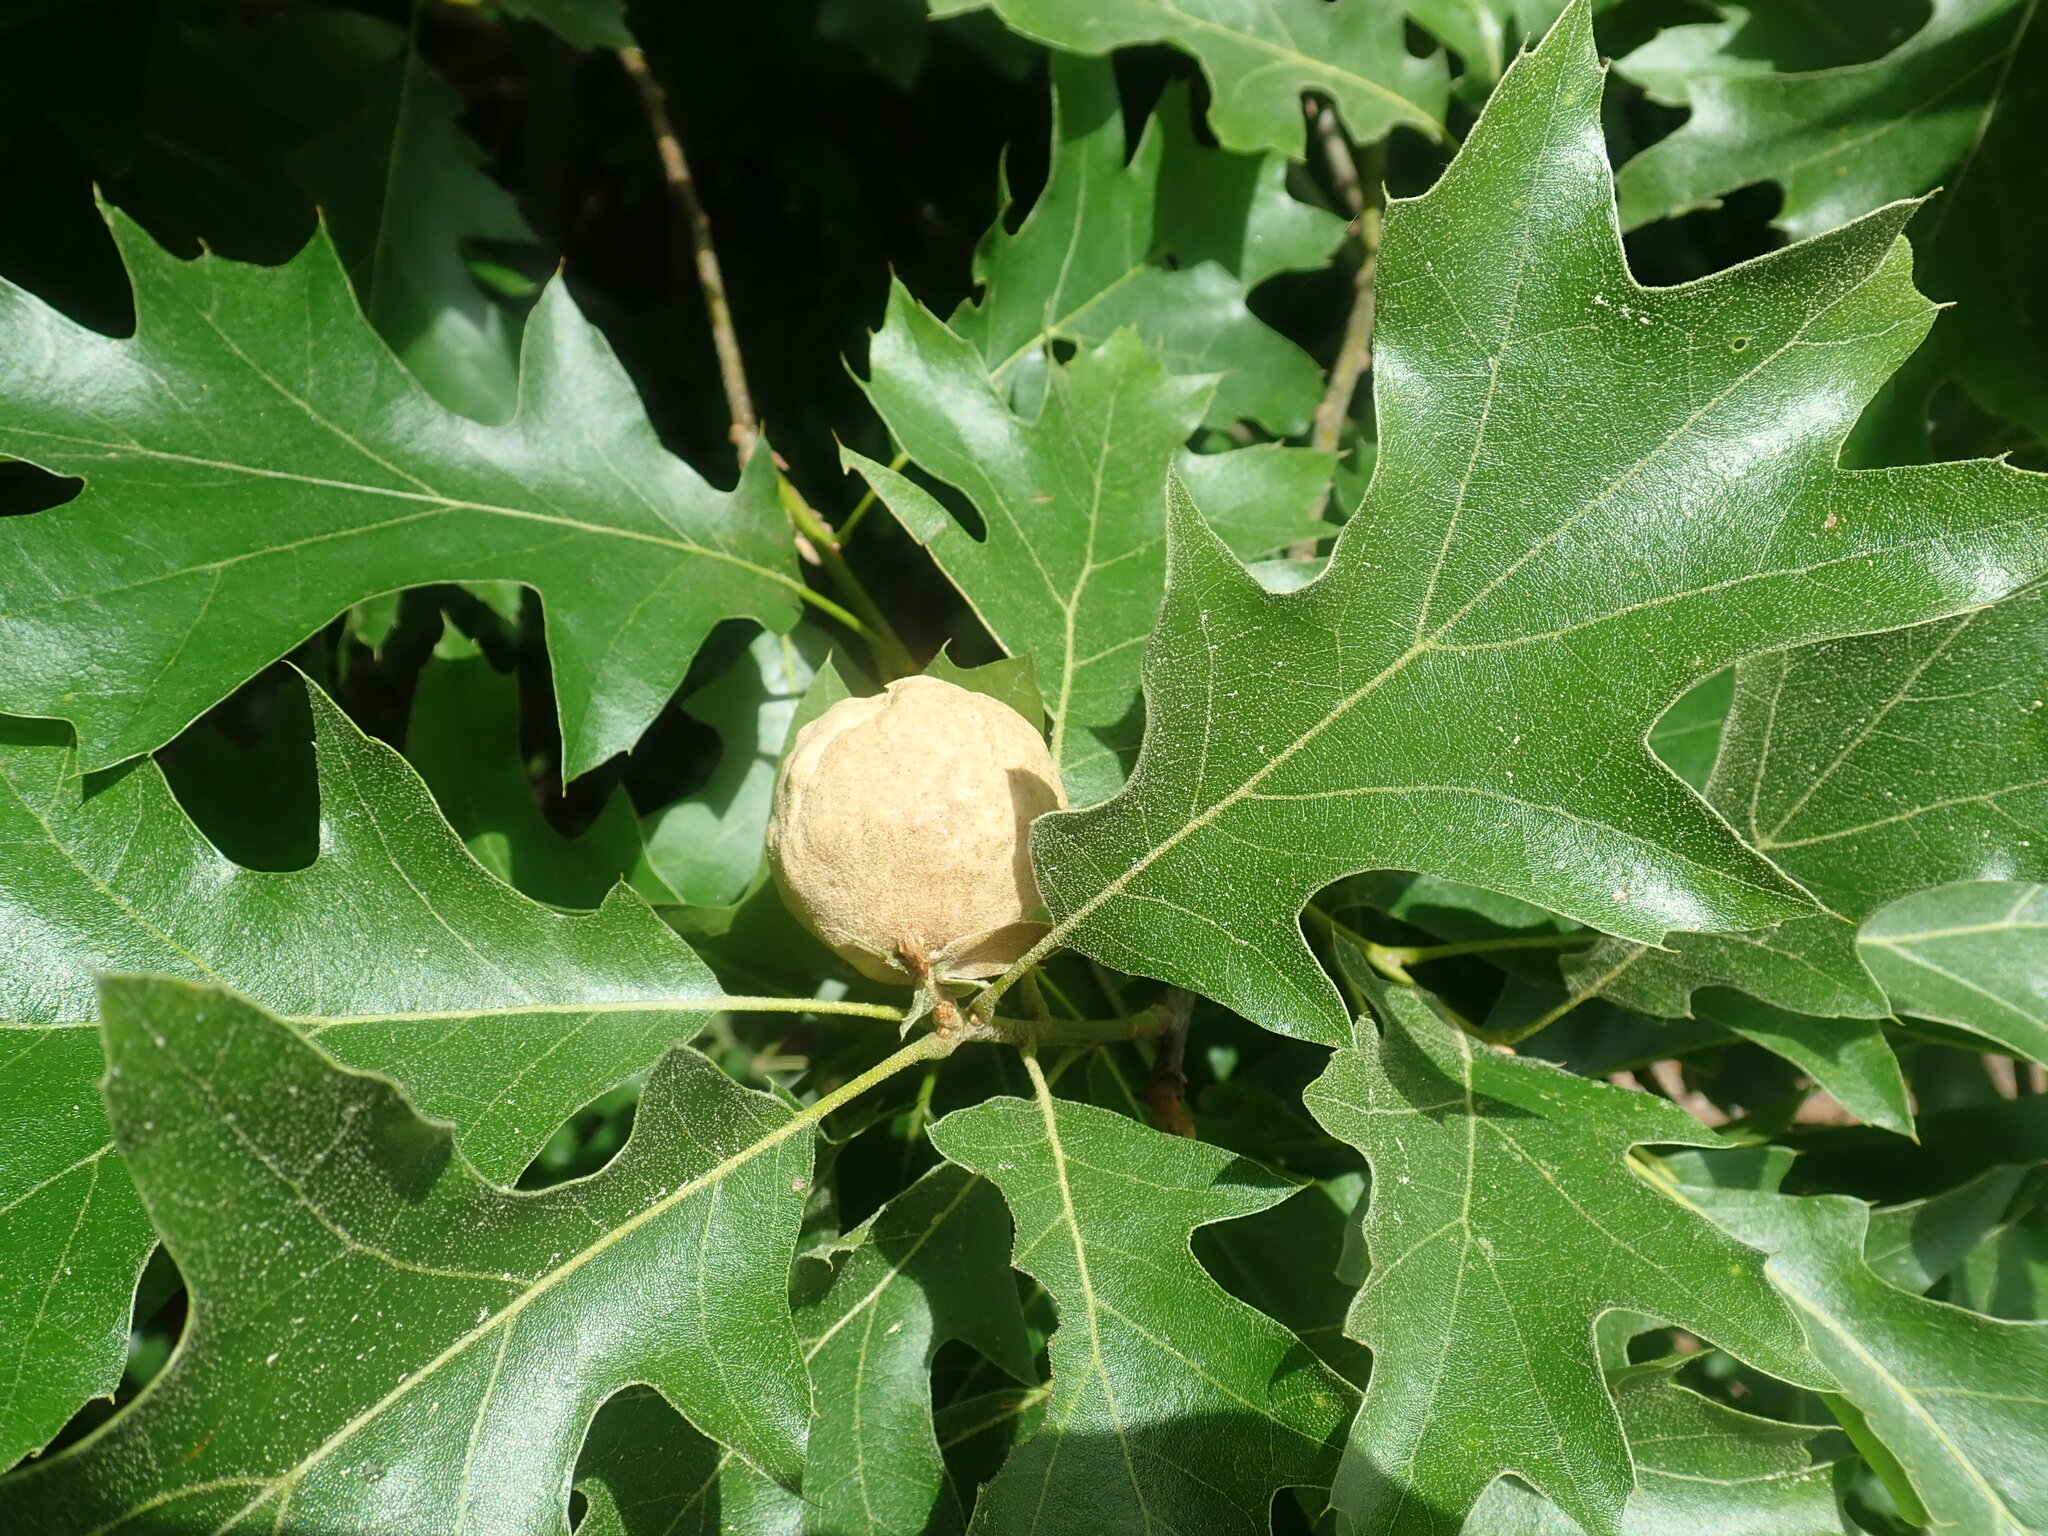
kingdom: Animalia
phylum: Arthropoda
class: Insecta
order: Hymenoptera
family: Cynipidae
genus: Amphibolips
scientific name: Amphibolips
